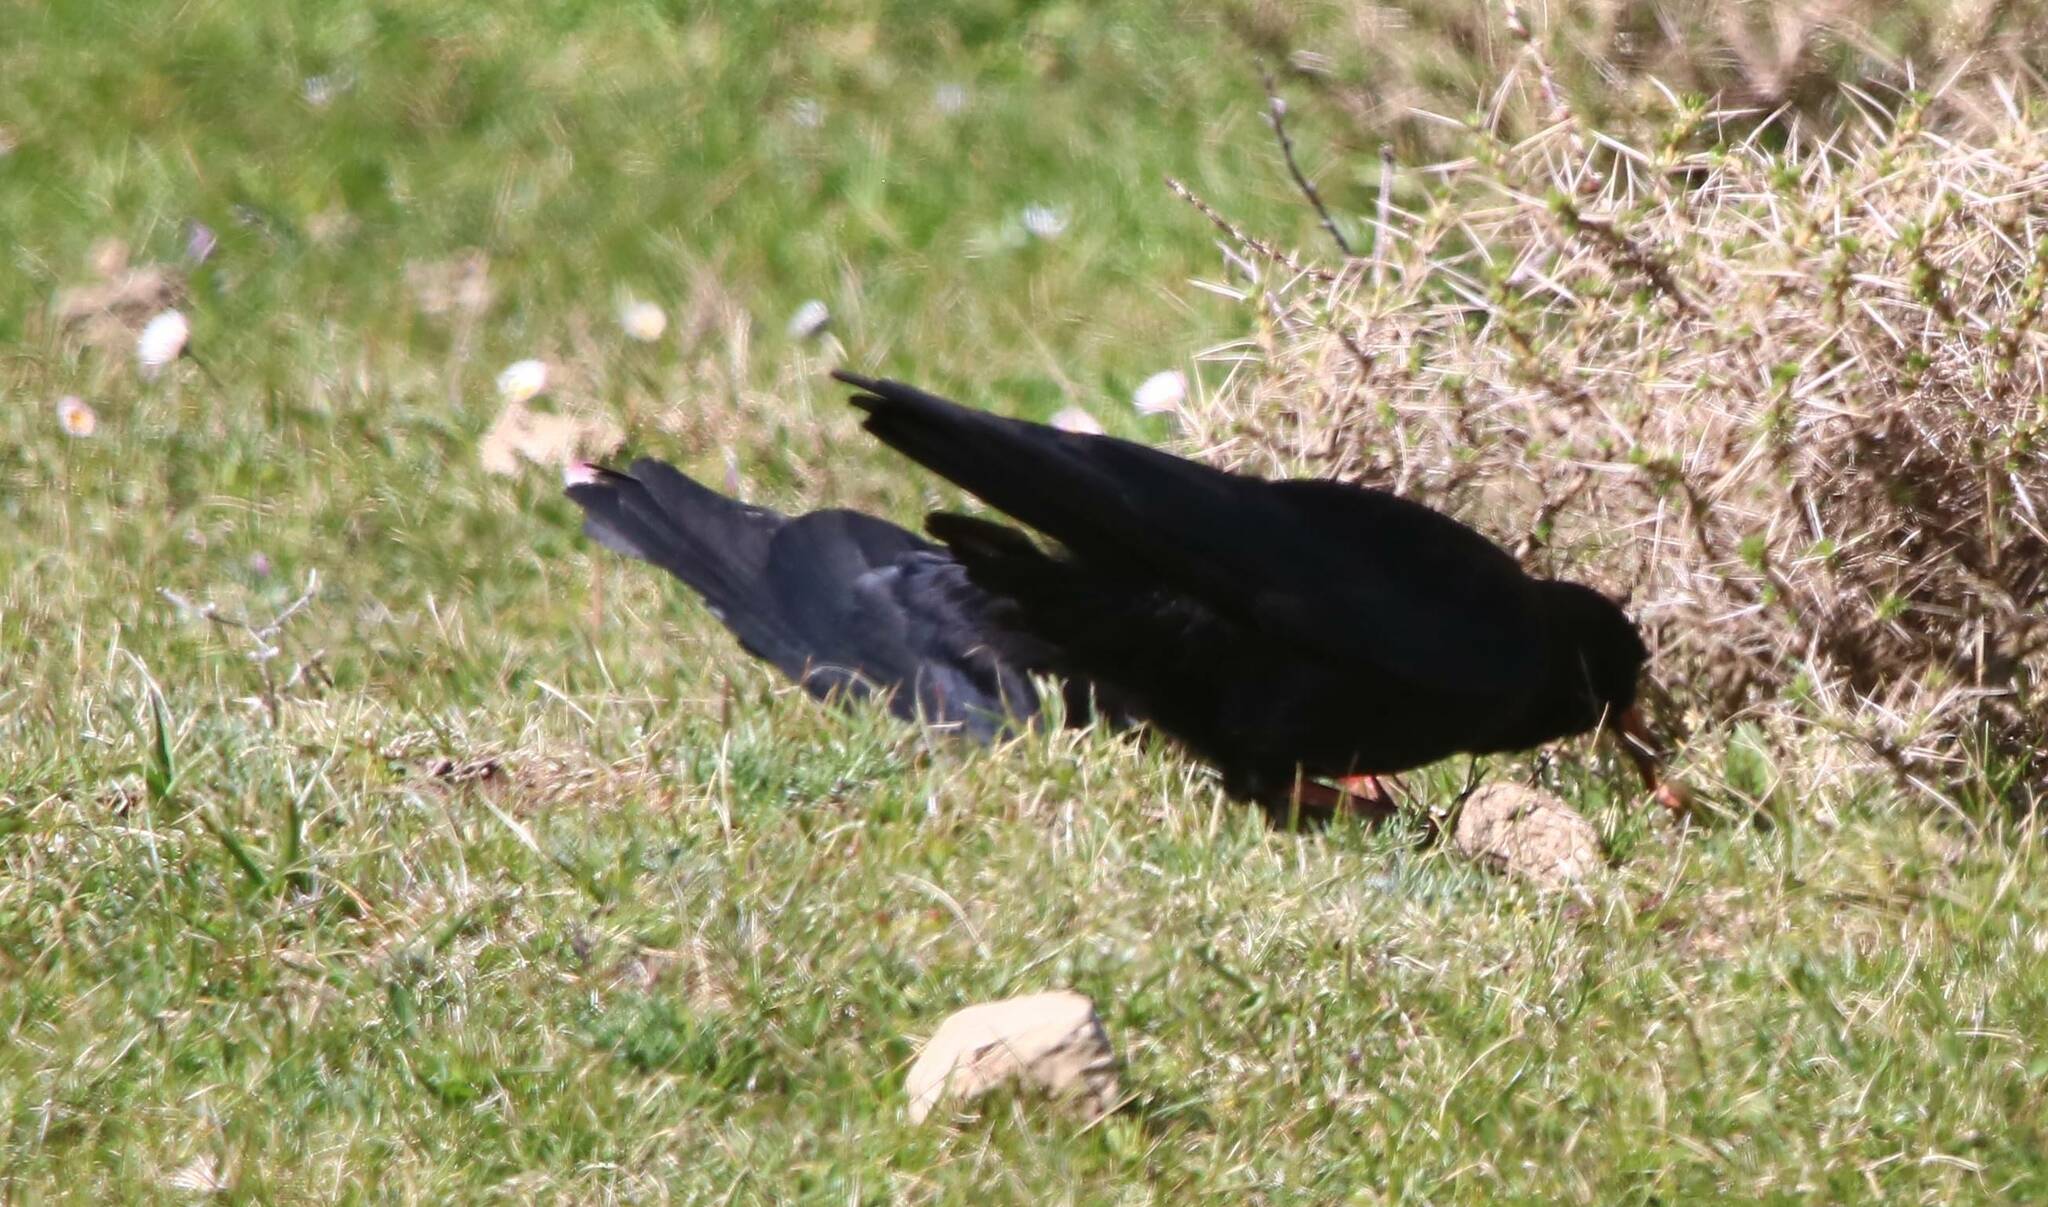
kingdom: Animalia
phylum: Chordata
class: Aves
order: Passeriformes
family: Corvidae
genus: Pyrrhocorax
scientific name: Pyrrhocorax pyrrhocorax
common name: Red-billed chough
